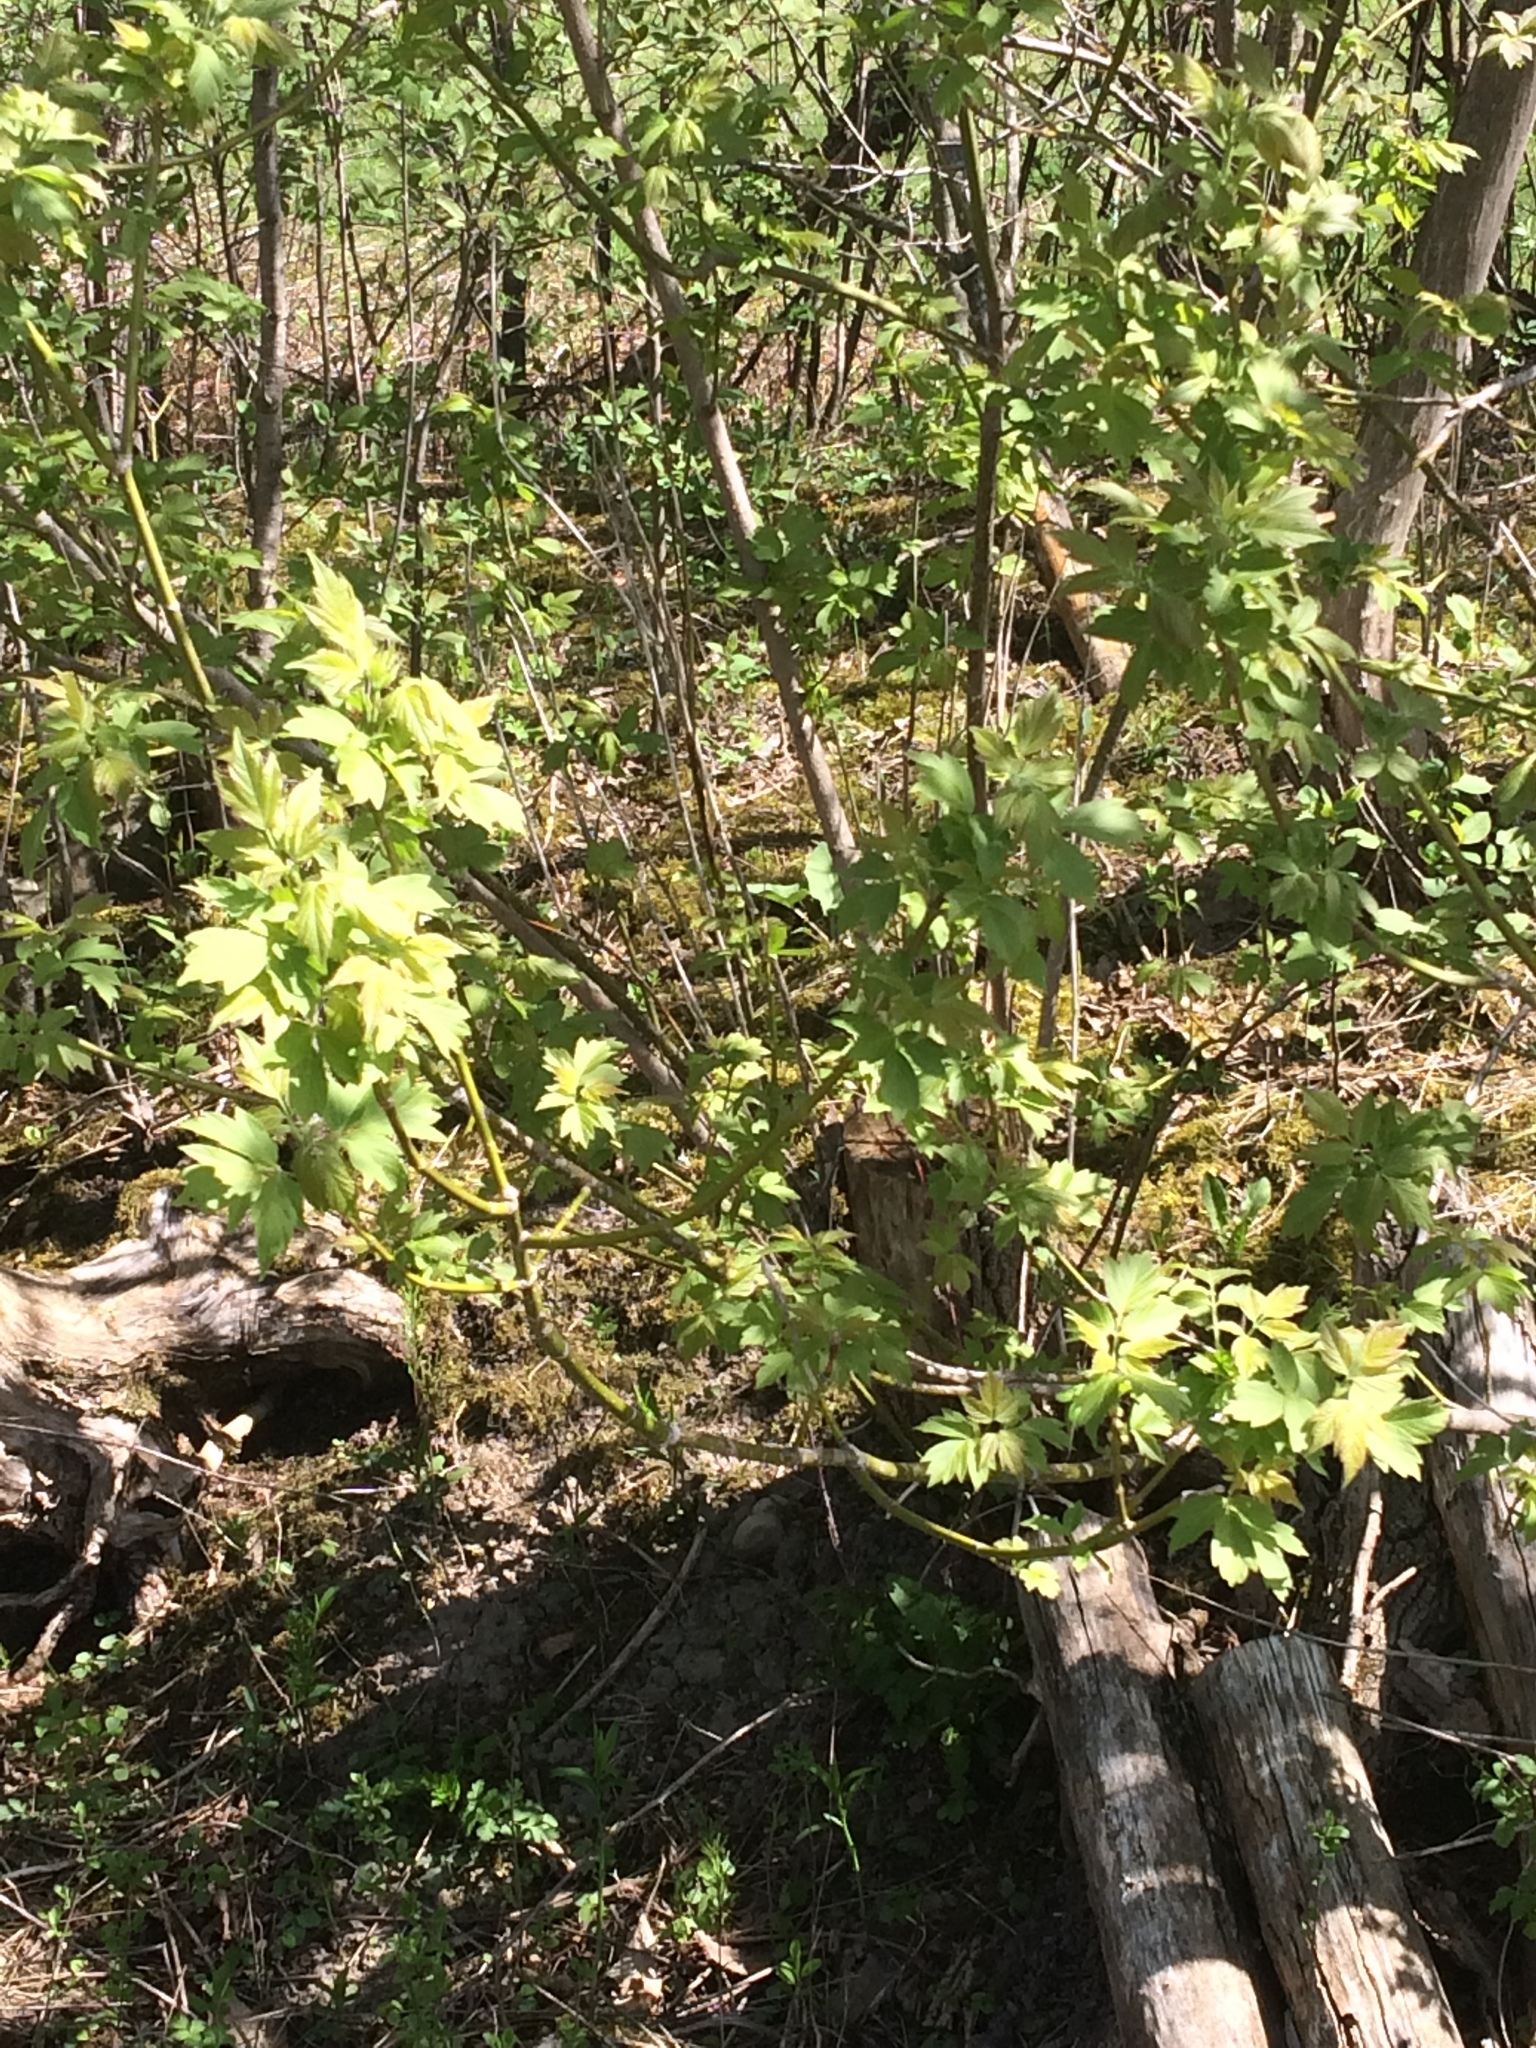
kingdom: Plantae
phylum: Tracheophyta
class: Magnoliopsida
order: Sapindales
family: Sapindaceae
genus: Acer
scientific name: Acer negundo
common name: Ashleaf maple
